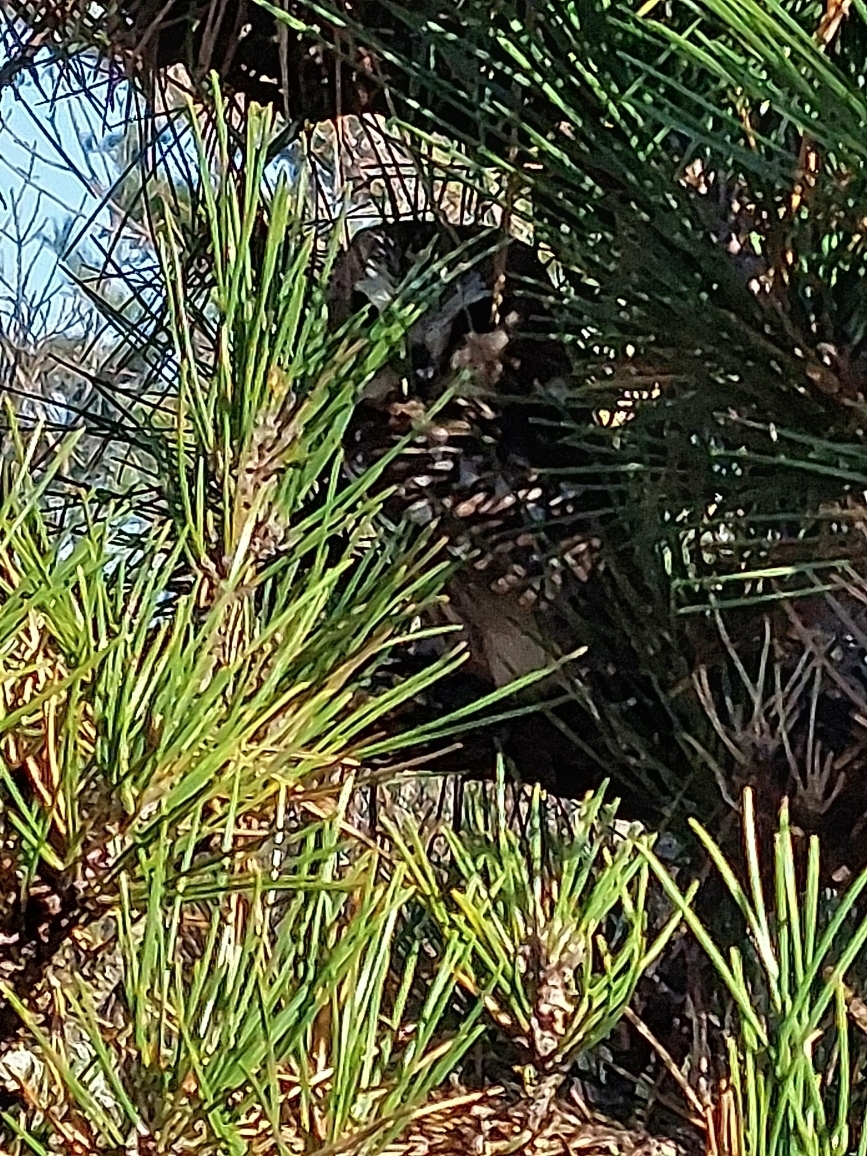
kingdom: Animalia
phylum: Chordata
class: Aves
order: Strigiformes
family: Strigidae
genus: Aegolius
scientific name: Aegolius acadicus
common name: Northern saw-whet owl
